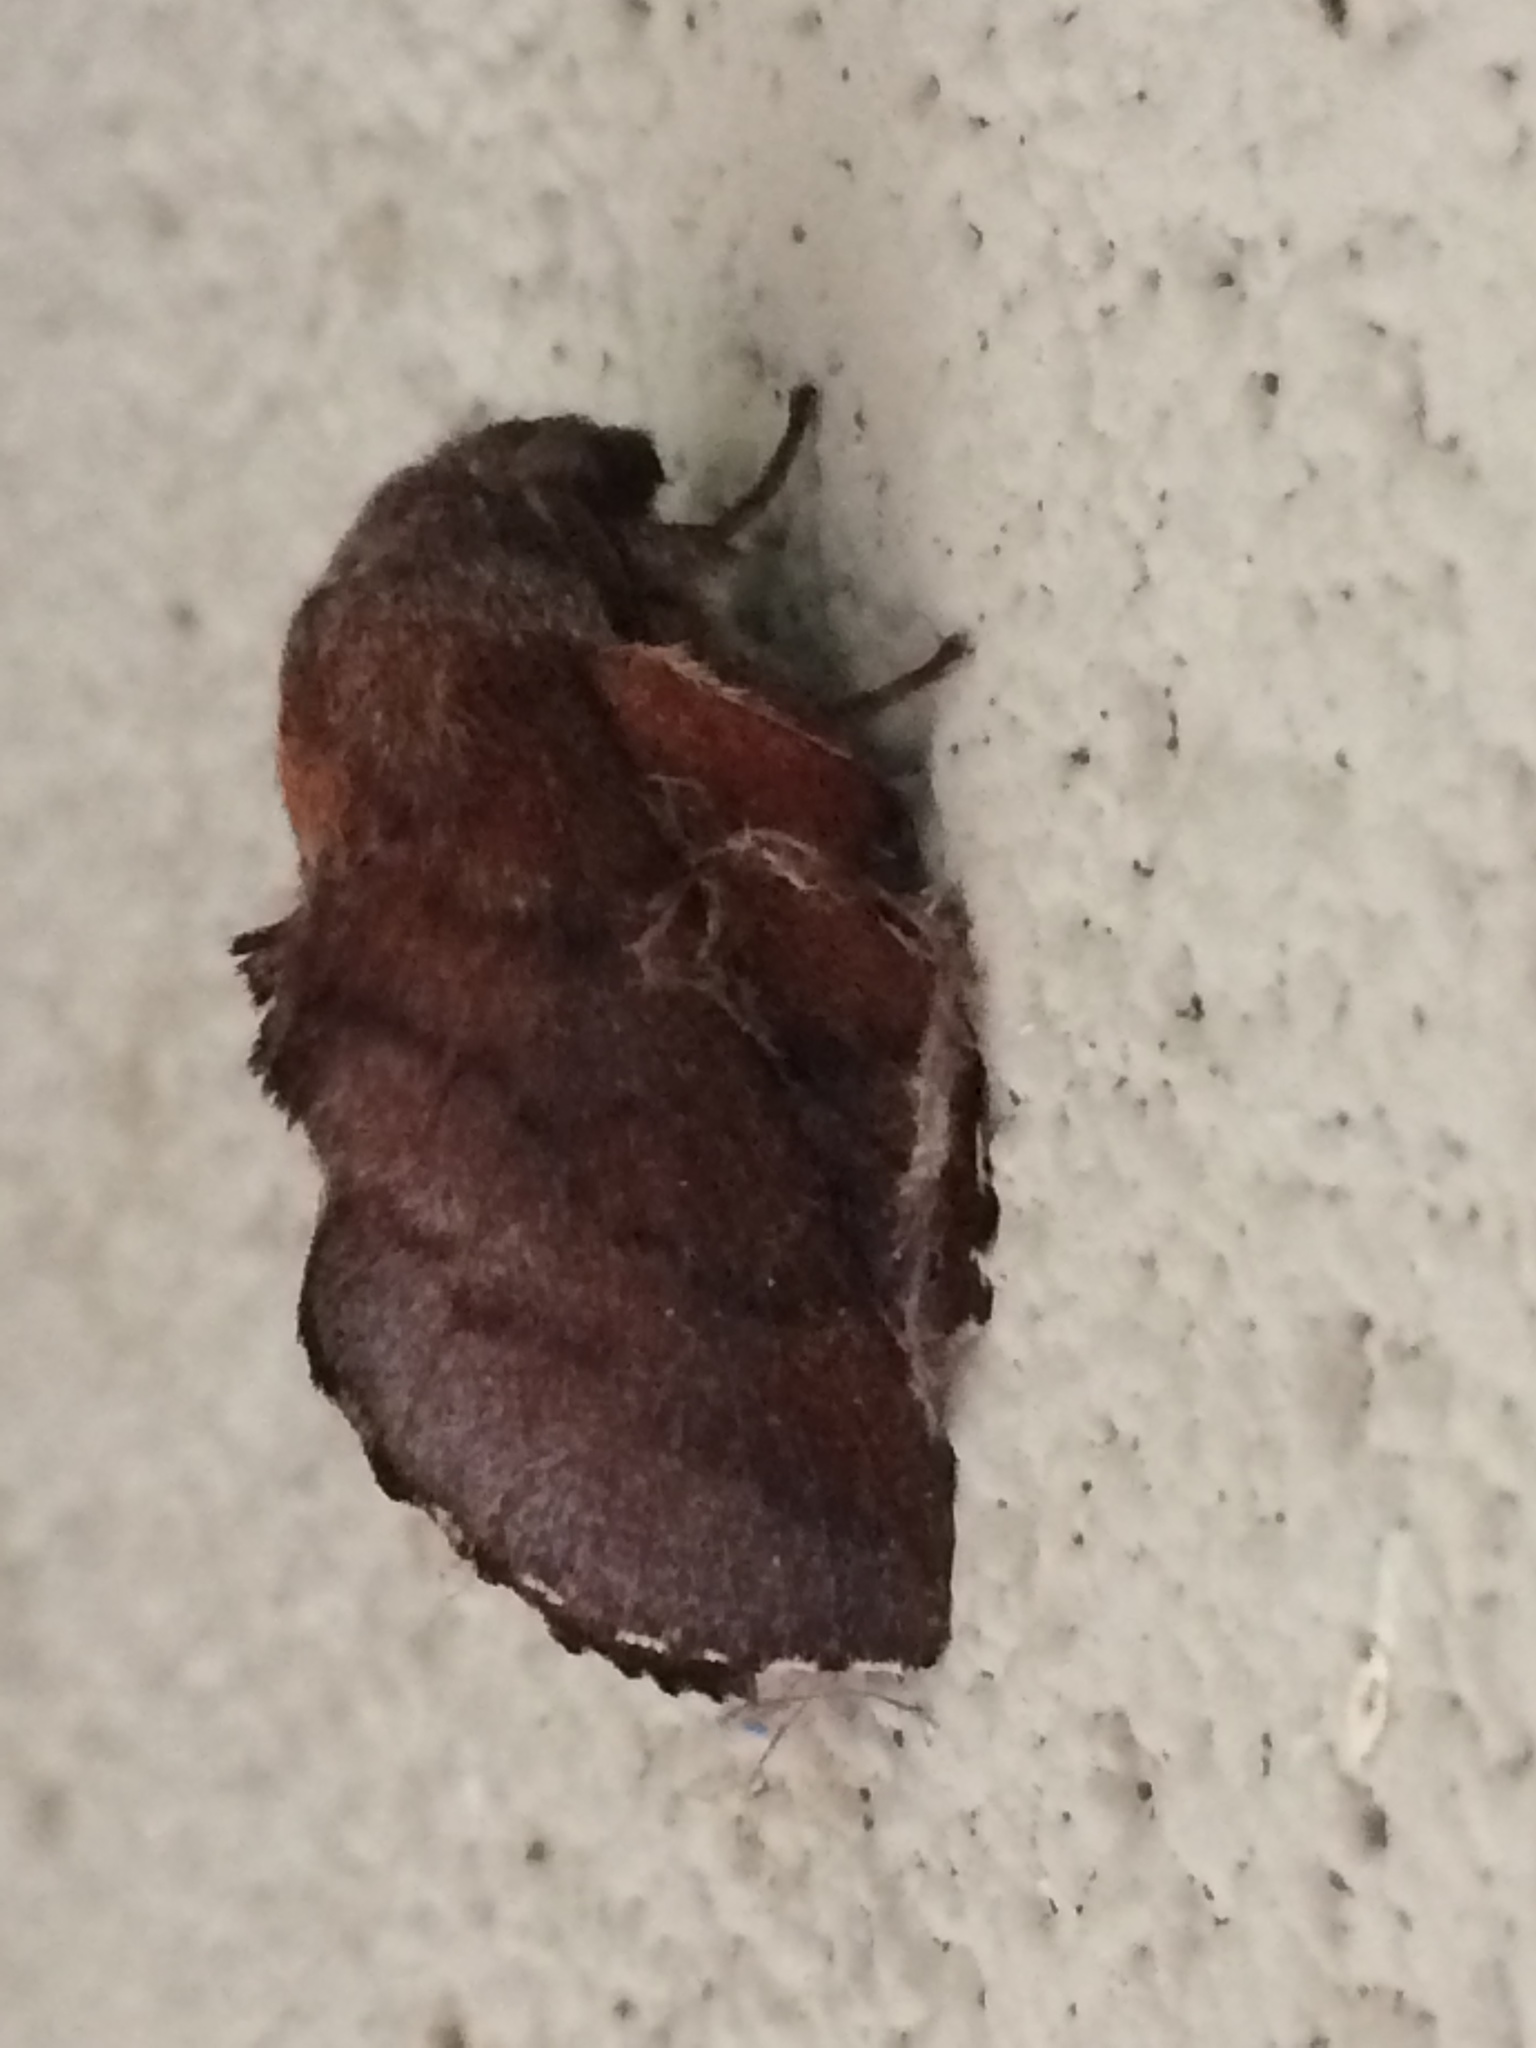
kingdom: Animalia
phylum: Arthropoda
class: Insecta
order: Lepidoptera
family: Lasiocampidae
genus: Phyllodesma
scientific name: Phyllodesma americana
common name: American lappet moth
